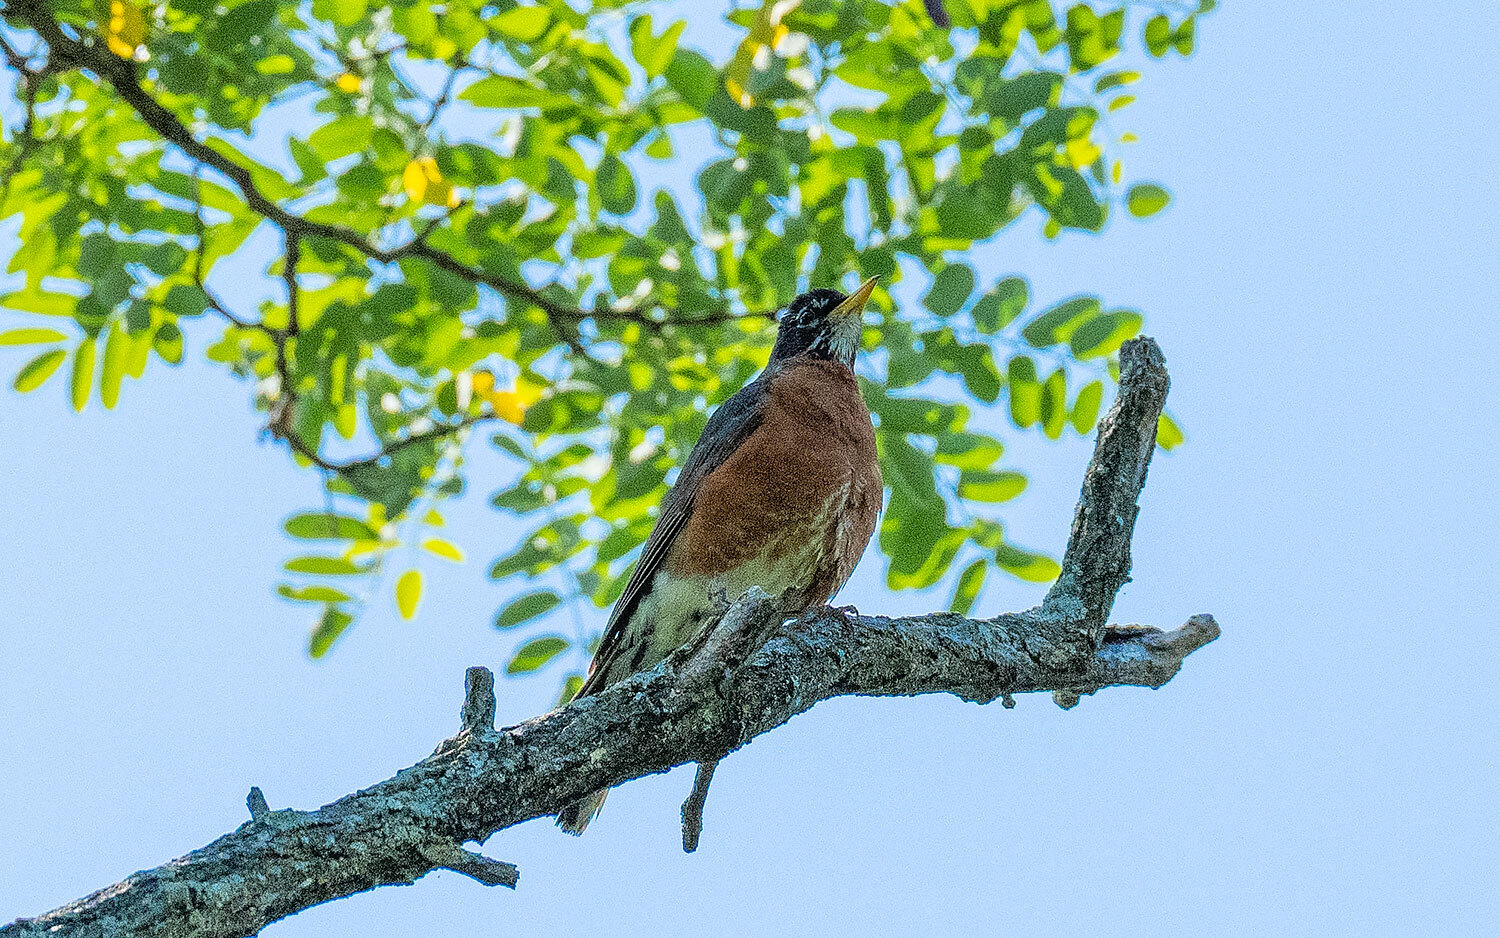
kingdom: Animalia
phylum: Chordata
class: Aves
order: Passeriformes
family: Turdidae
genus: Turdus
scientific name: Turdus migratorius
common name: American robin
